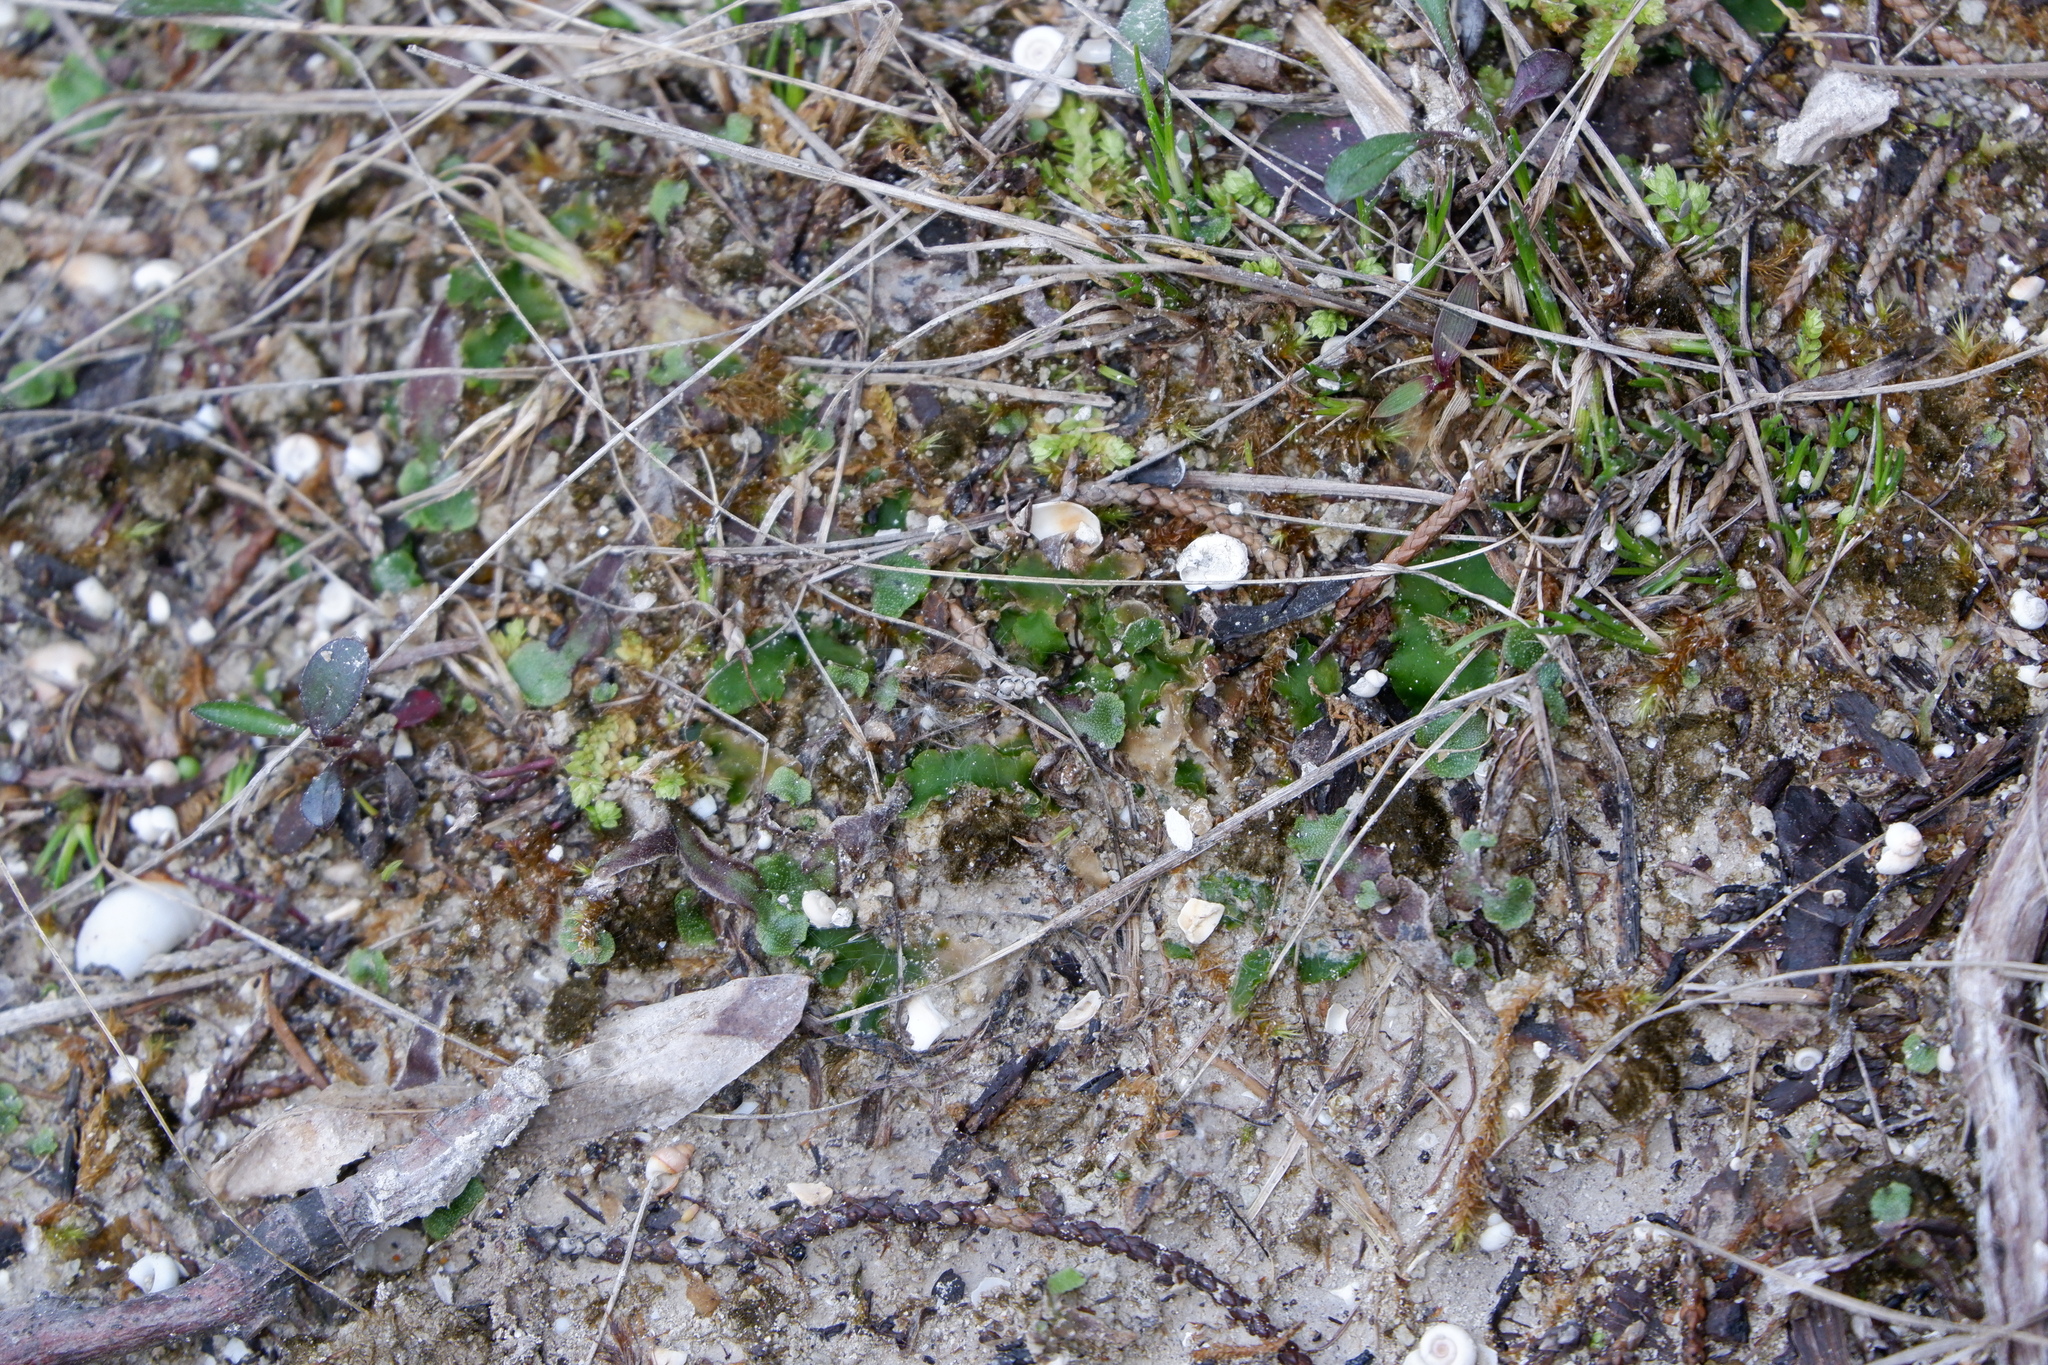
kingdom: Plantae
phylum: Marchantiophyta
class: Jungermanniopsida
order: Metzgeriales
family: Aneuraceae
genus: Aneura
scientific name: Aneura pinguis
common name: Common greasewort
